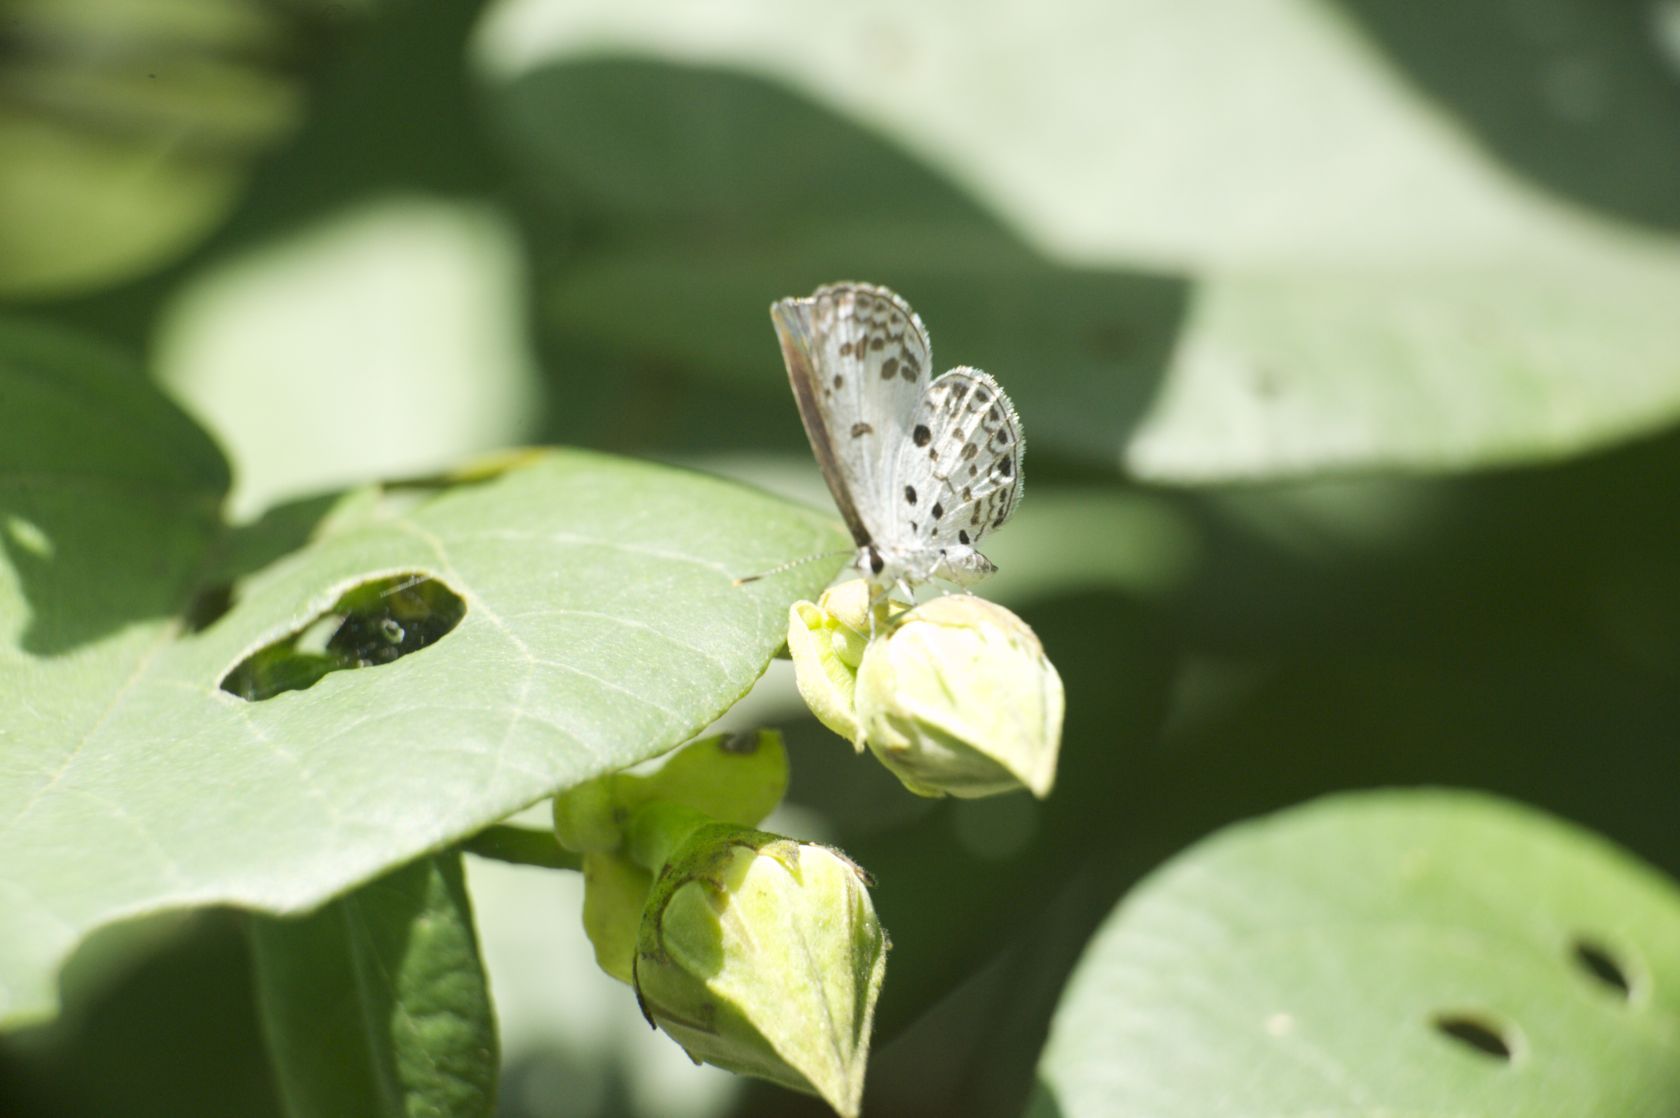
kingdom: Animalia
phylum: Arthropoda
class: Insecta
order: Lepidoptera
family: Lycaenidae
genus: Acytolepis
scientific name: Acytolepis puspa
